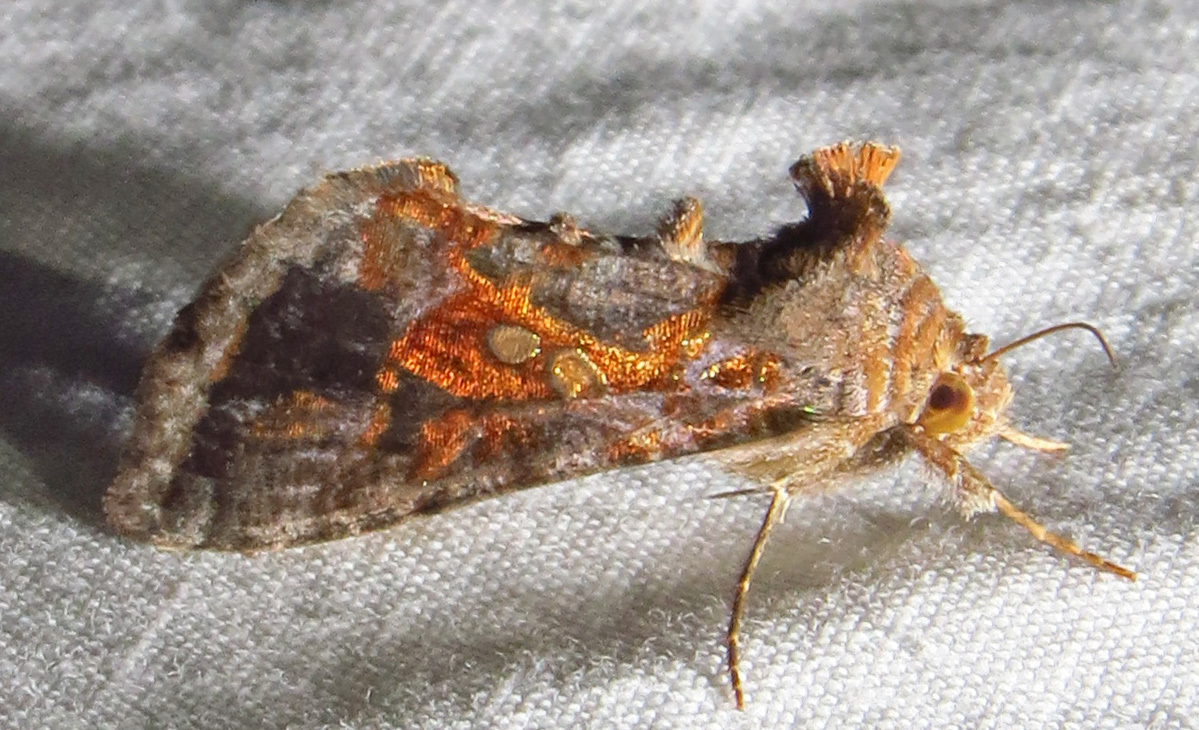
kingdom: Animalia
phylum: Arthropoda
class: Insecta
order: Lepidoptera
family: Noctuidae
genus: Chrysodeixis
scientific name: Chrysodeixis includens
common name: Cutworm moth
